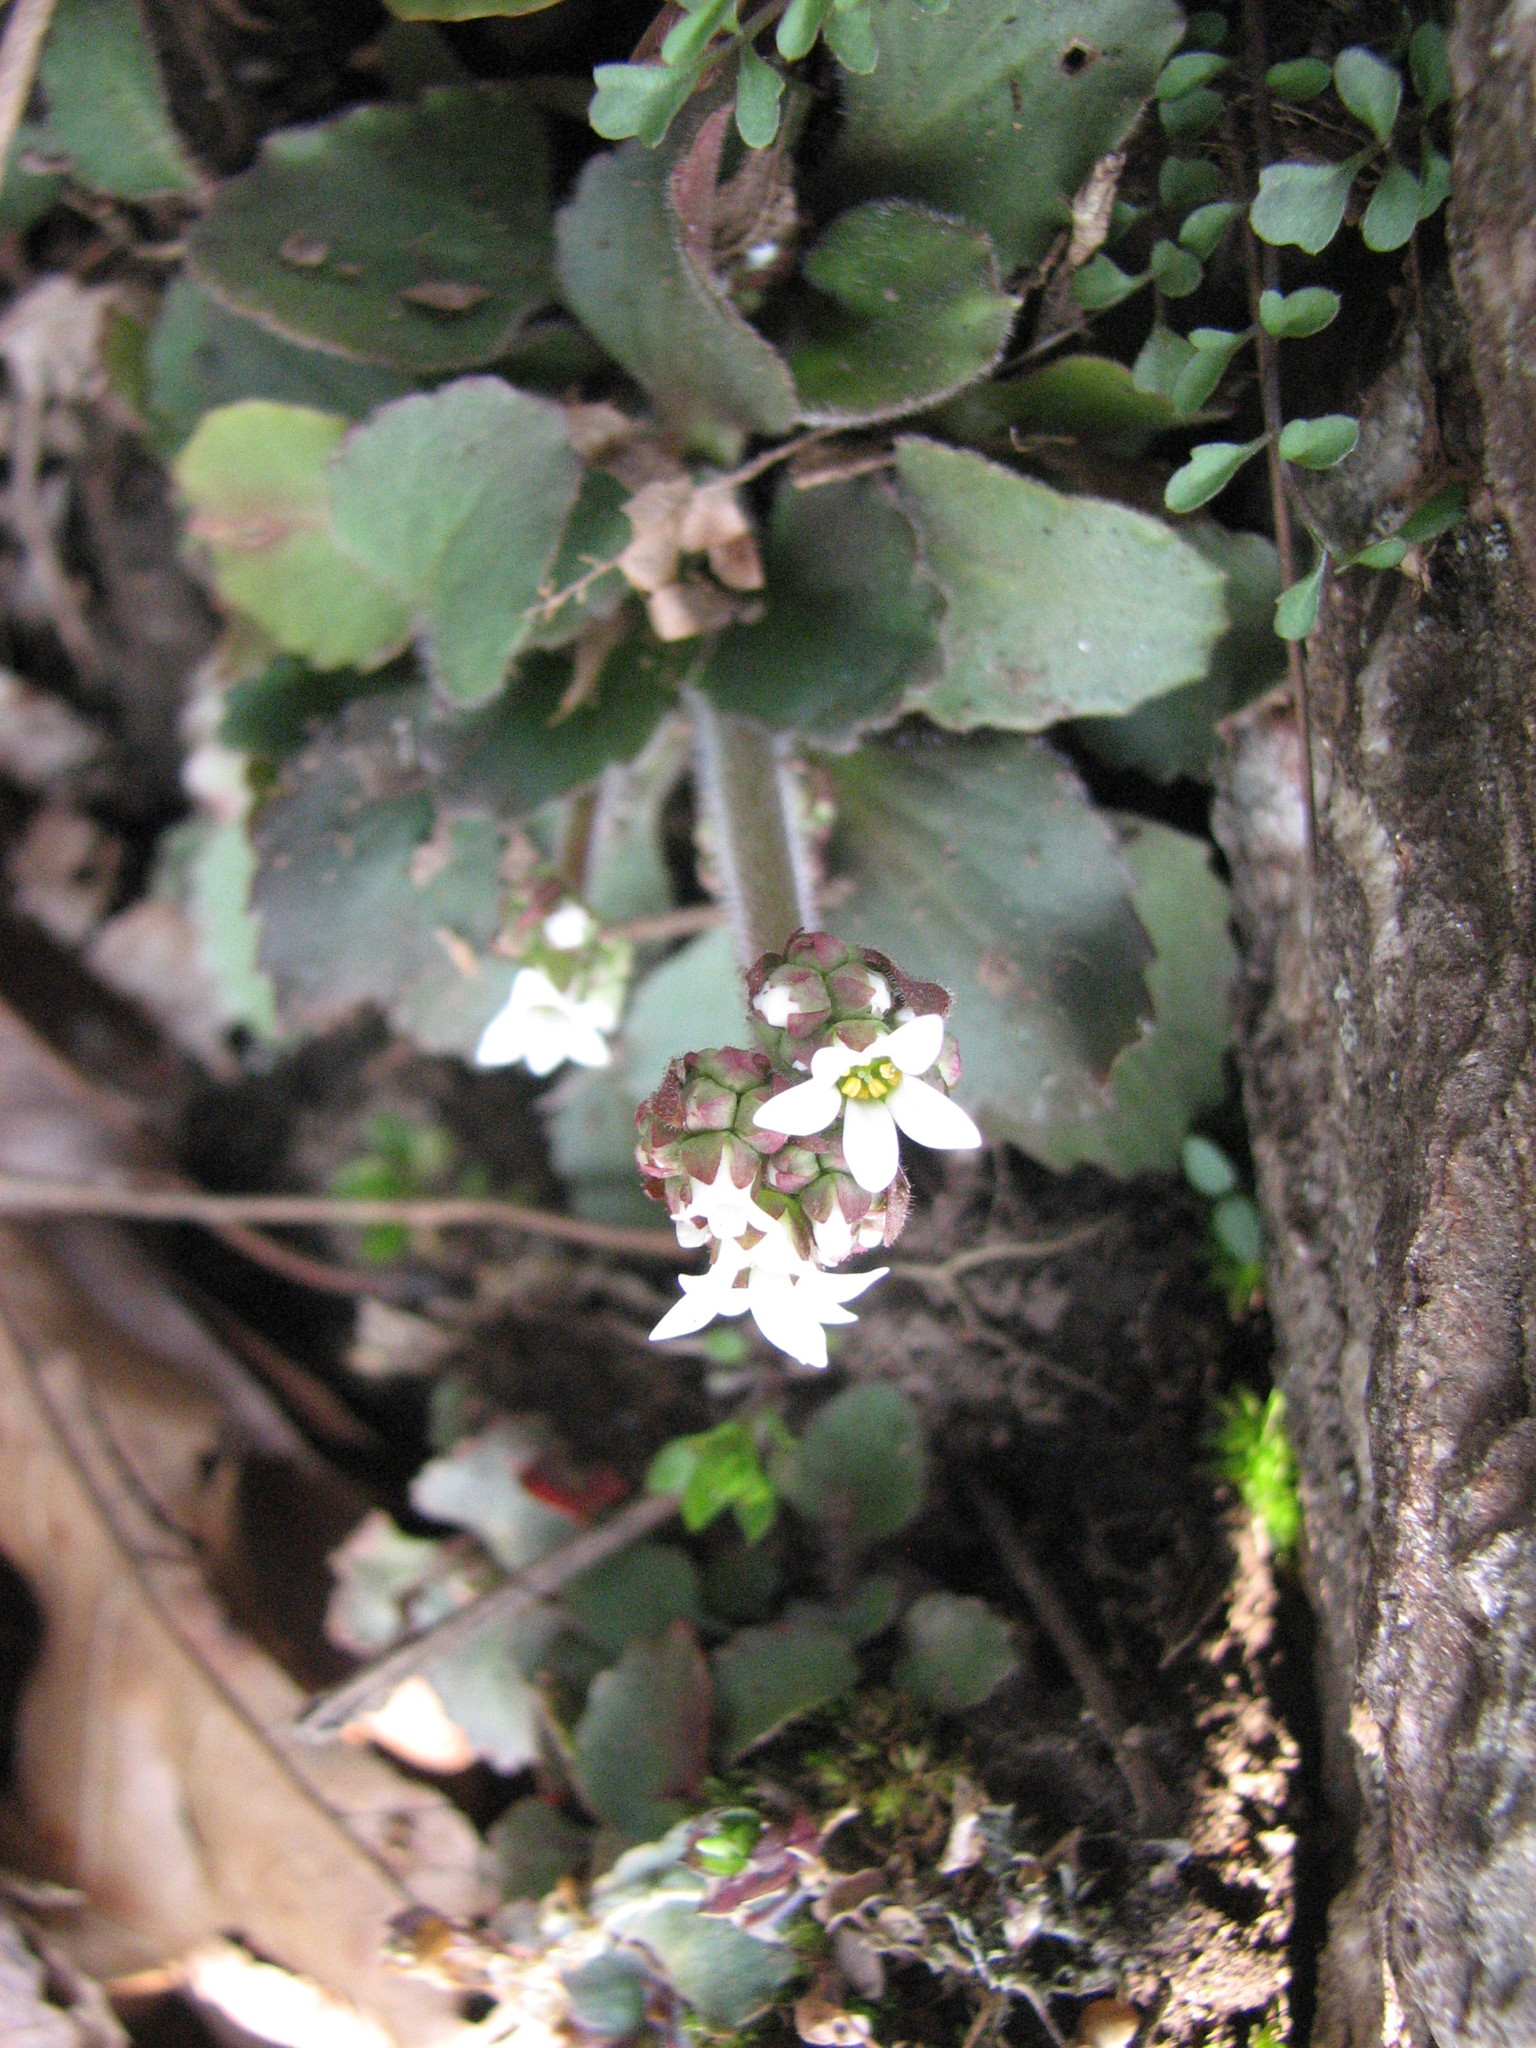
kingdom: Plantae
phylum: Tracheophyta
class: Magnoliopsida
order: Saxifragales
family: Saxifragaceae
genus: Micranthes
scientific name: Micranthes virginiensis
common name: Early saxifrage
